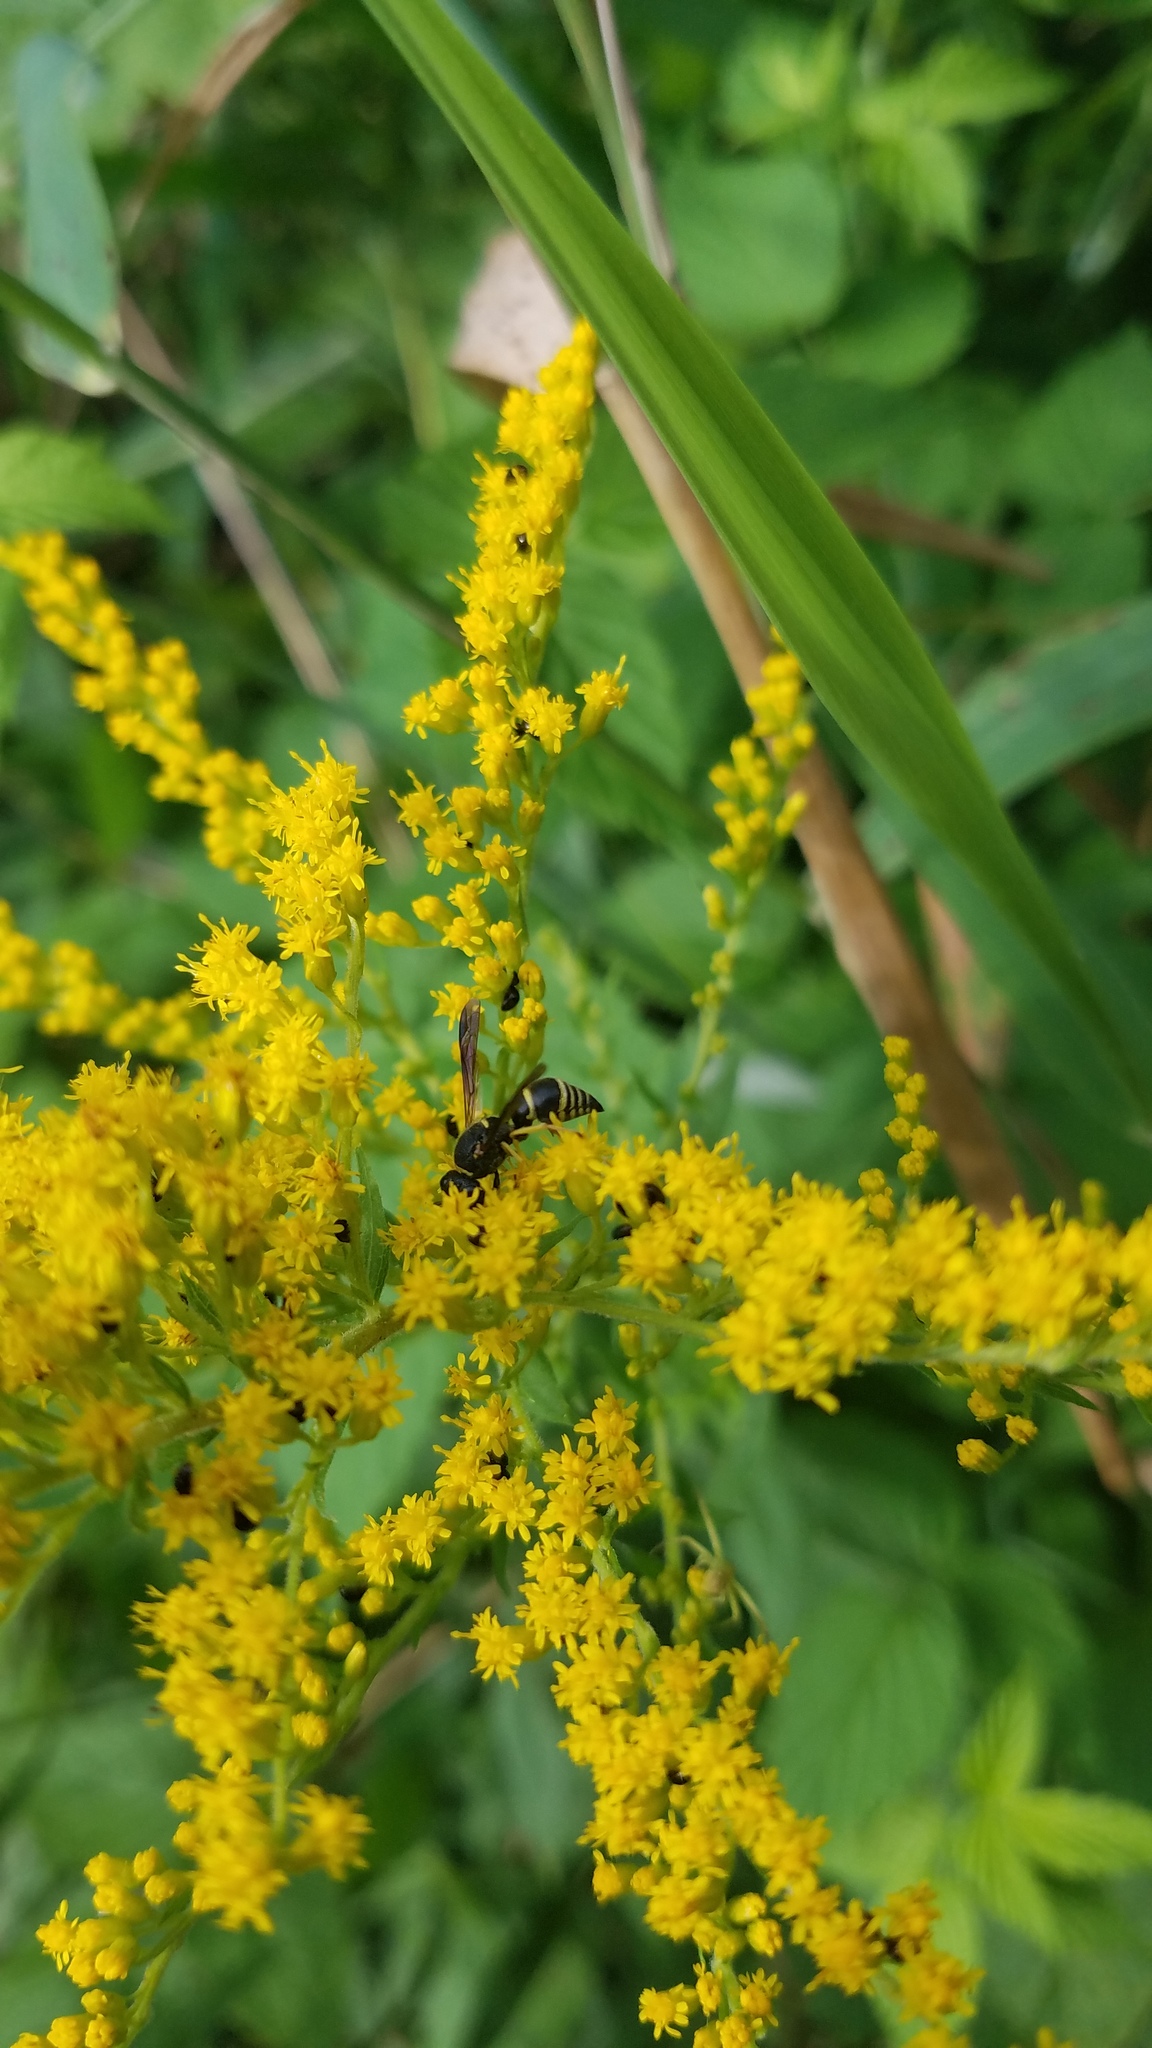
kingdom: Animalia
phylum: Arthropoda
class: Insecta
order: Hymenoptera
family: Eumenidae
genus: Euodynerus
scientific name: Euodynerus foraminatus
